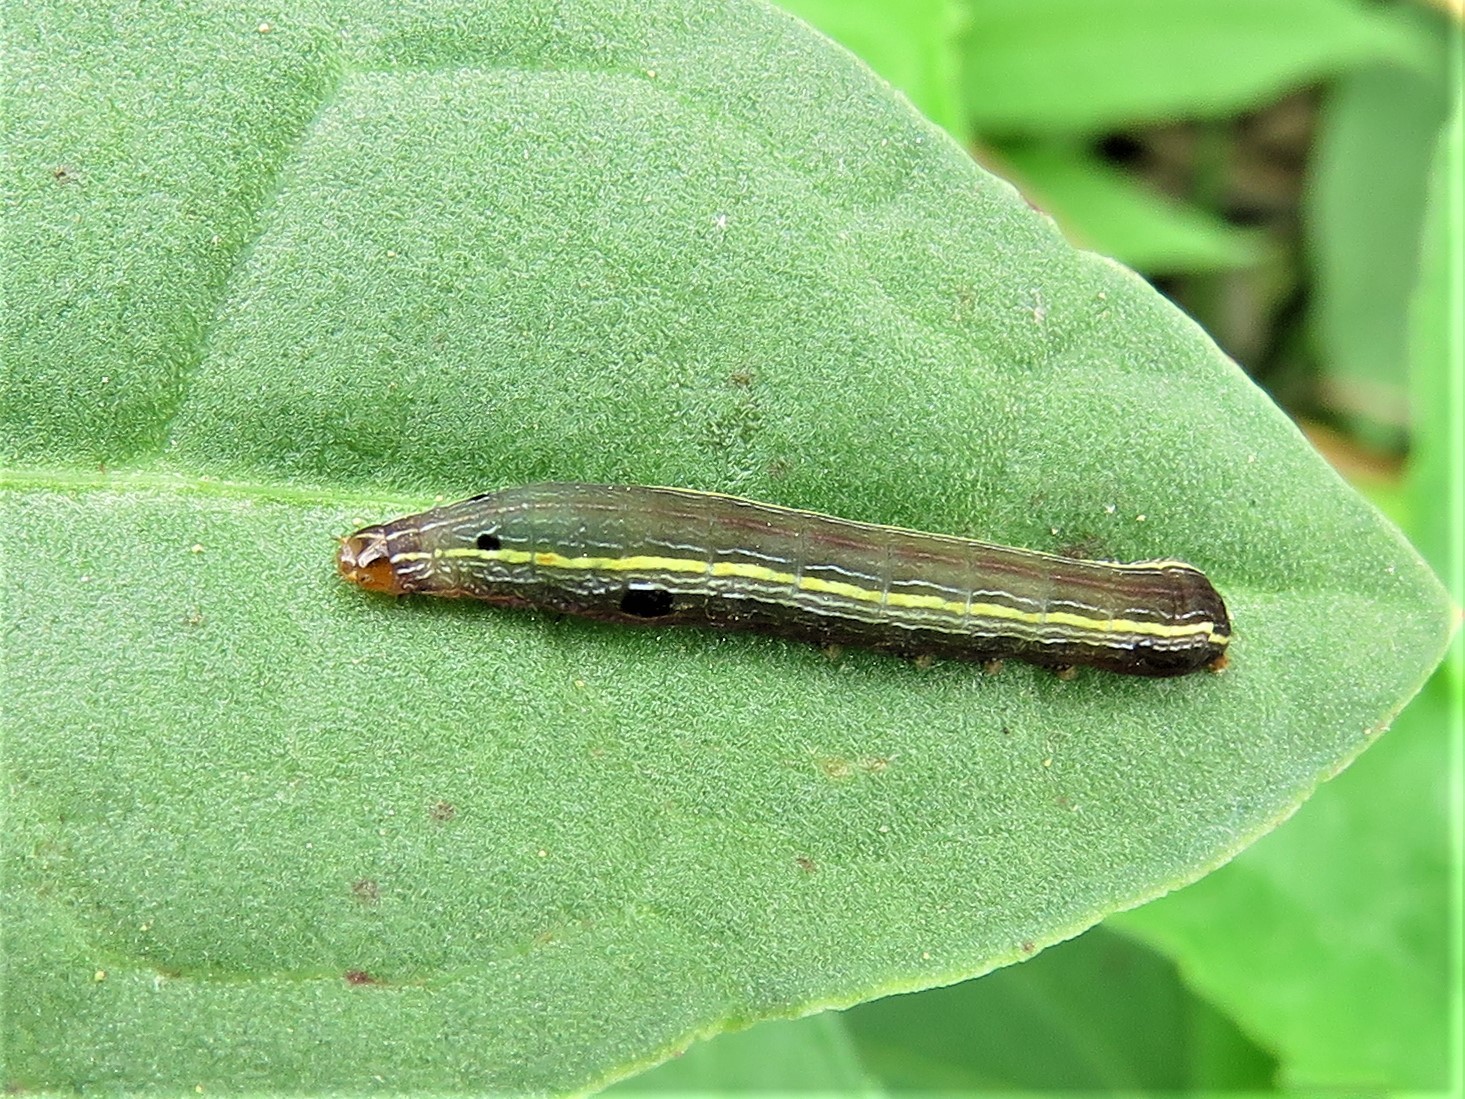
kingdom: Animalia
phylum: Arthropoda
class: Insecta
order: Lepidoptera
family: Noctuidae
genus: Spodoptera
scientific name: Spodoptera ornithogalli
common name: Yellow-striped armyworm
